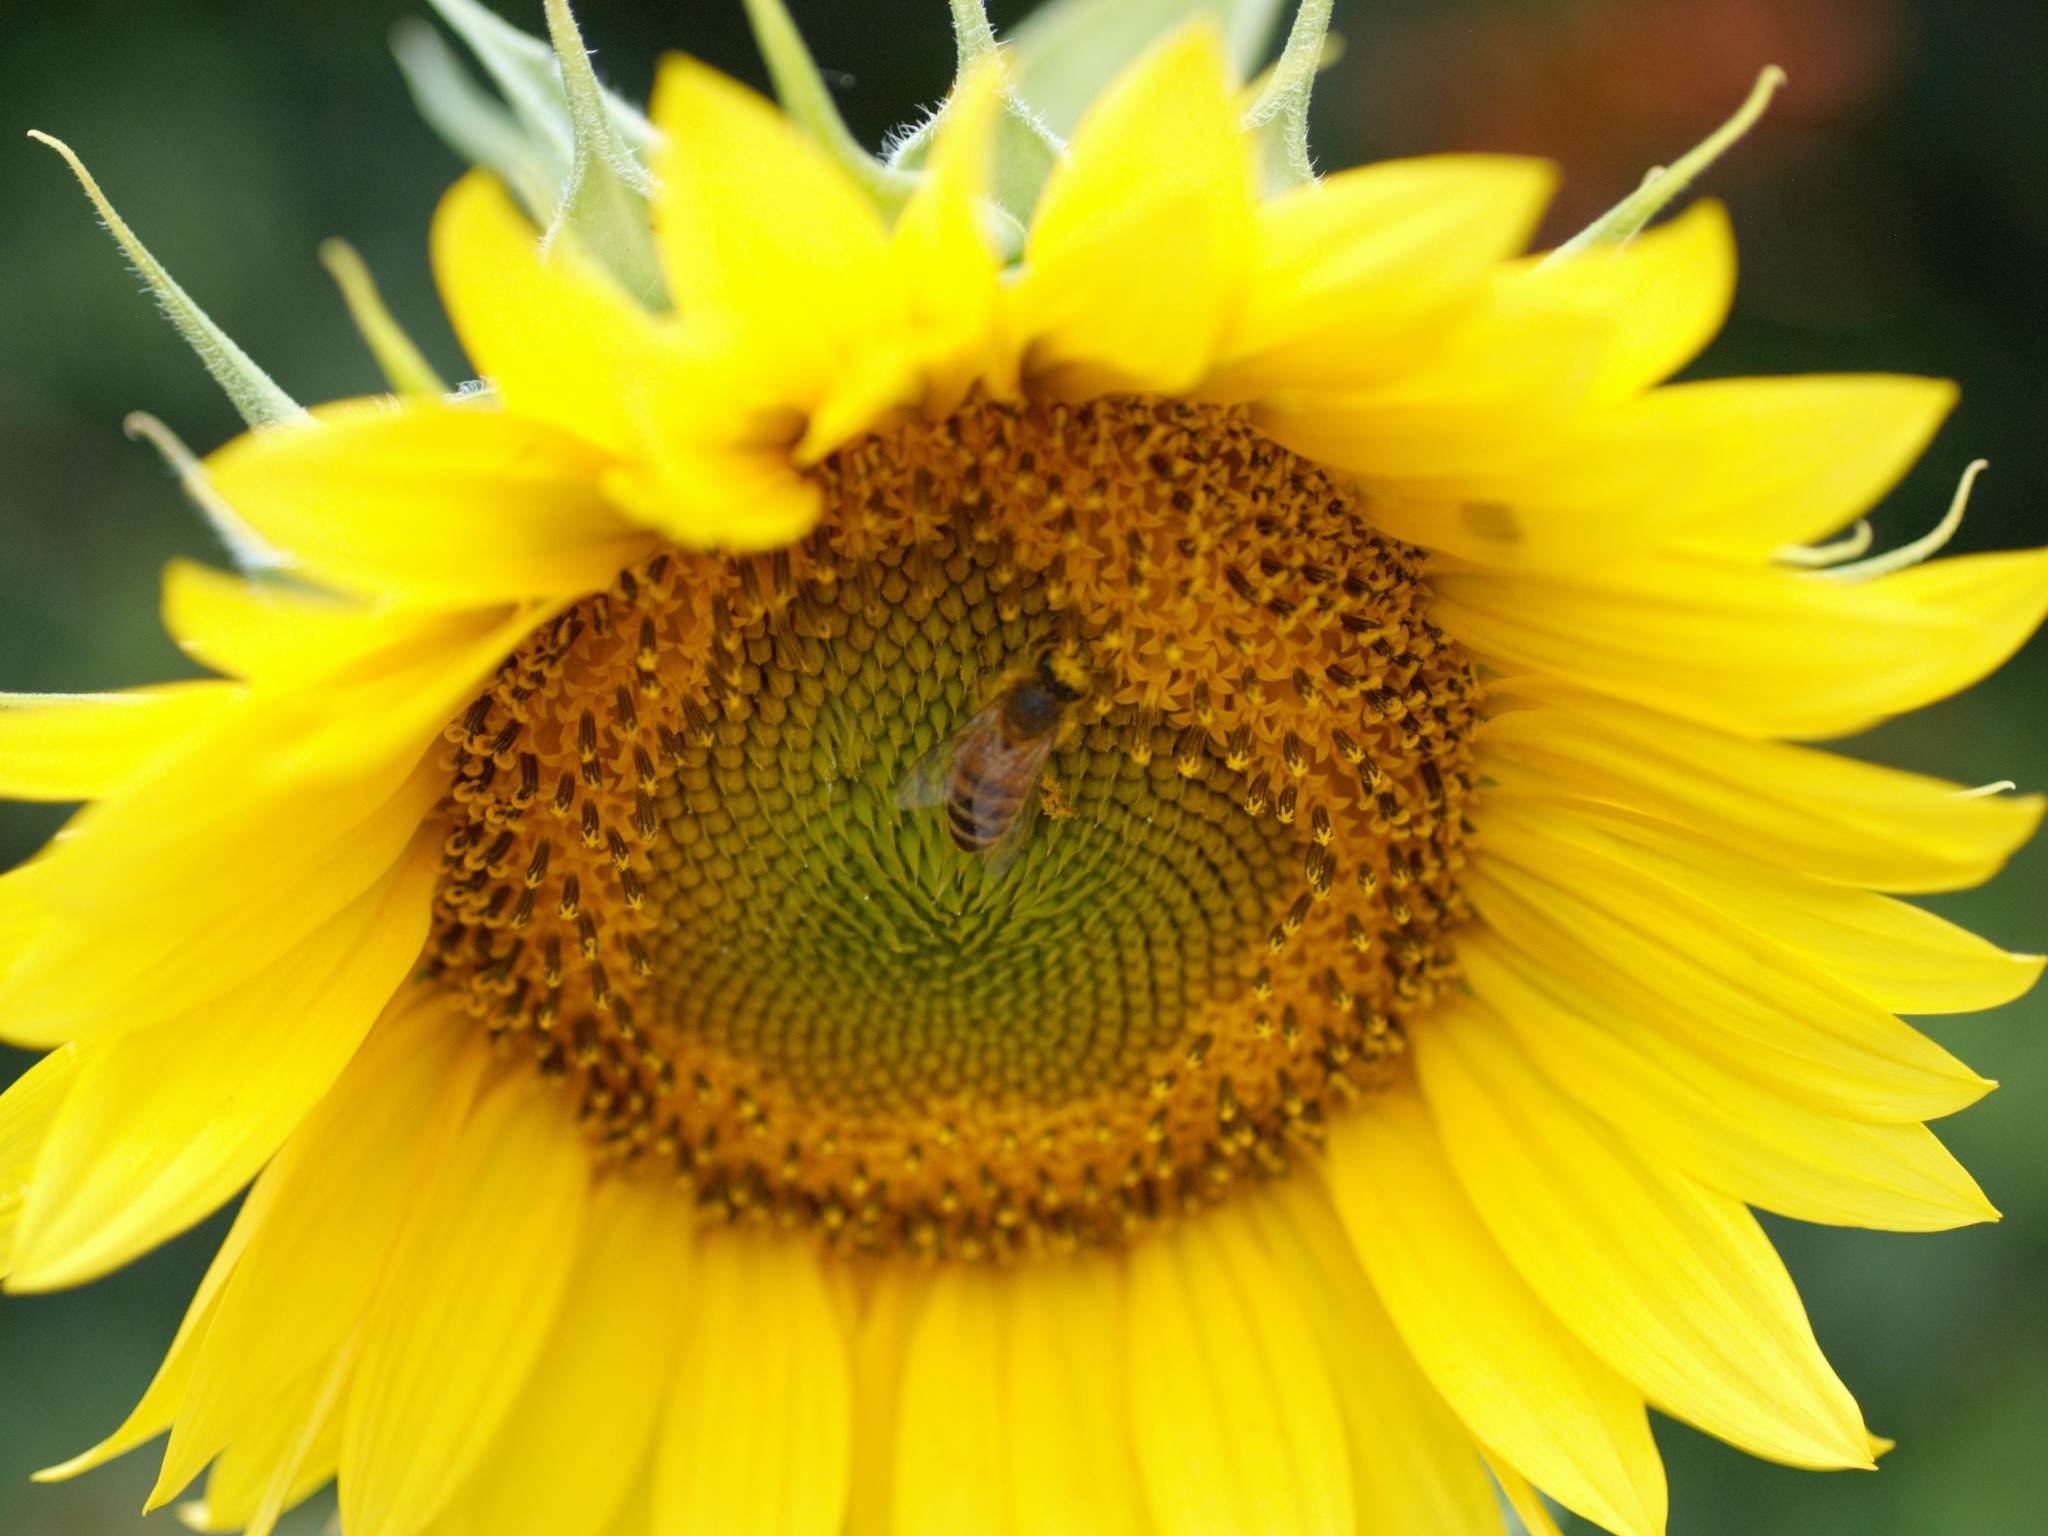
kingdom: Animalia
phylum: Arthropoda
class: Insecta
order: Hymenoptera
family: Apidae
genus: Apis
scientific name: Apis mellifera
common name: Honey bee
